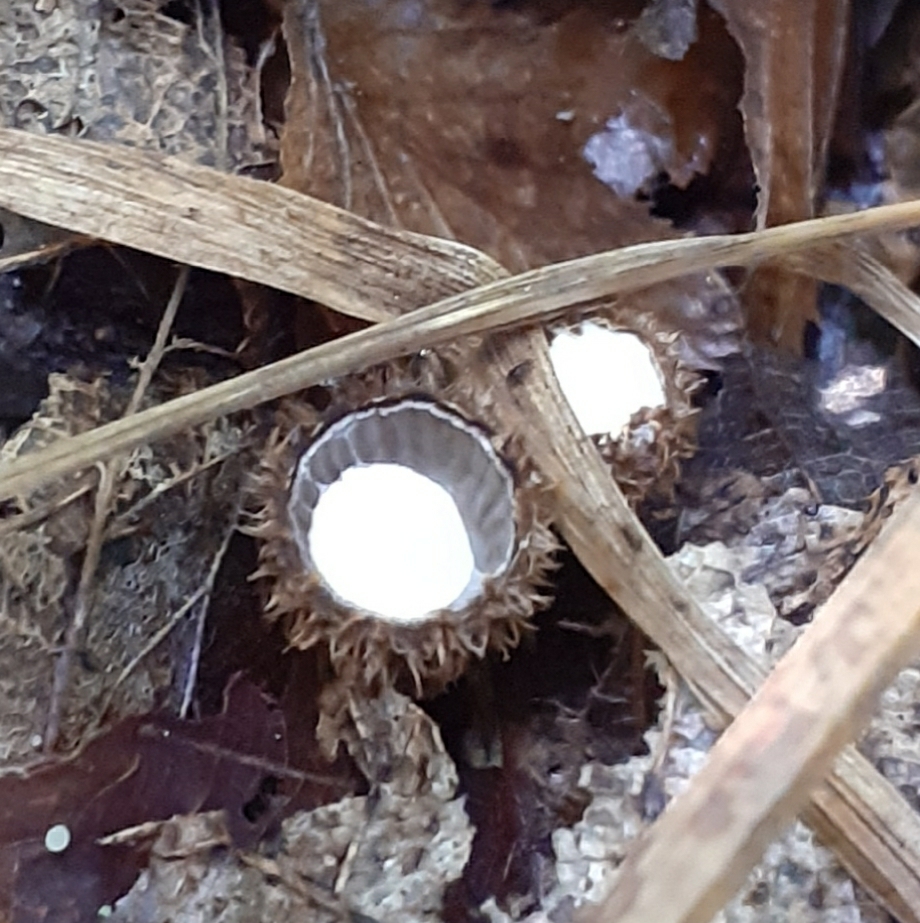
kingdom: Fungi
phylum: Basidiomycota
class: Agaricomycetes
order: Agaricales
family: Agaricaceae
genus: Cyathus
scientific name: Cyathus striatus
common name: Fluted bird's nest
